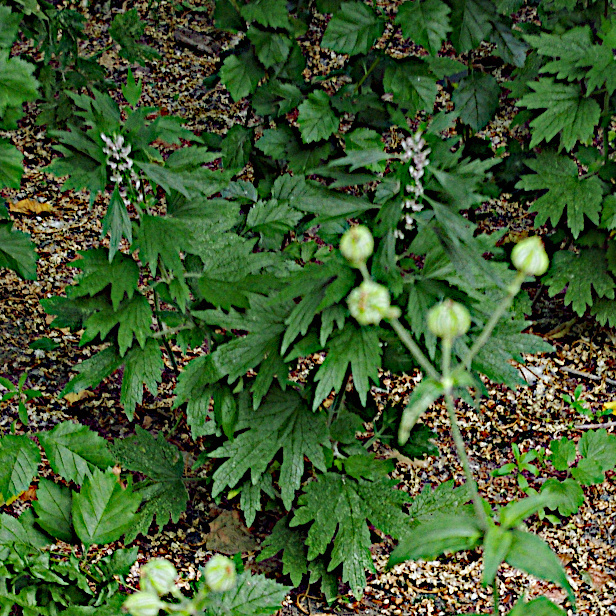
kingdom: Plantae
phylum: Tracheophyta
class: Magnoliopsida
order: Lamiales
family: Lamiaceae
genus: Leonurus
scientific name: Leonurus quinquelobatus
